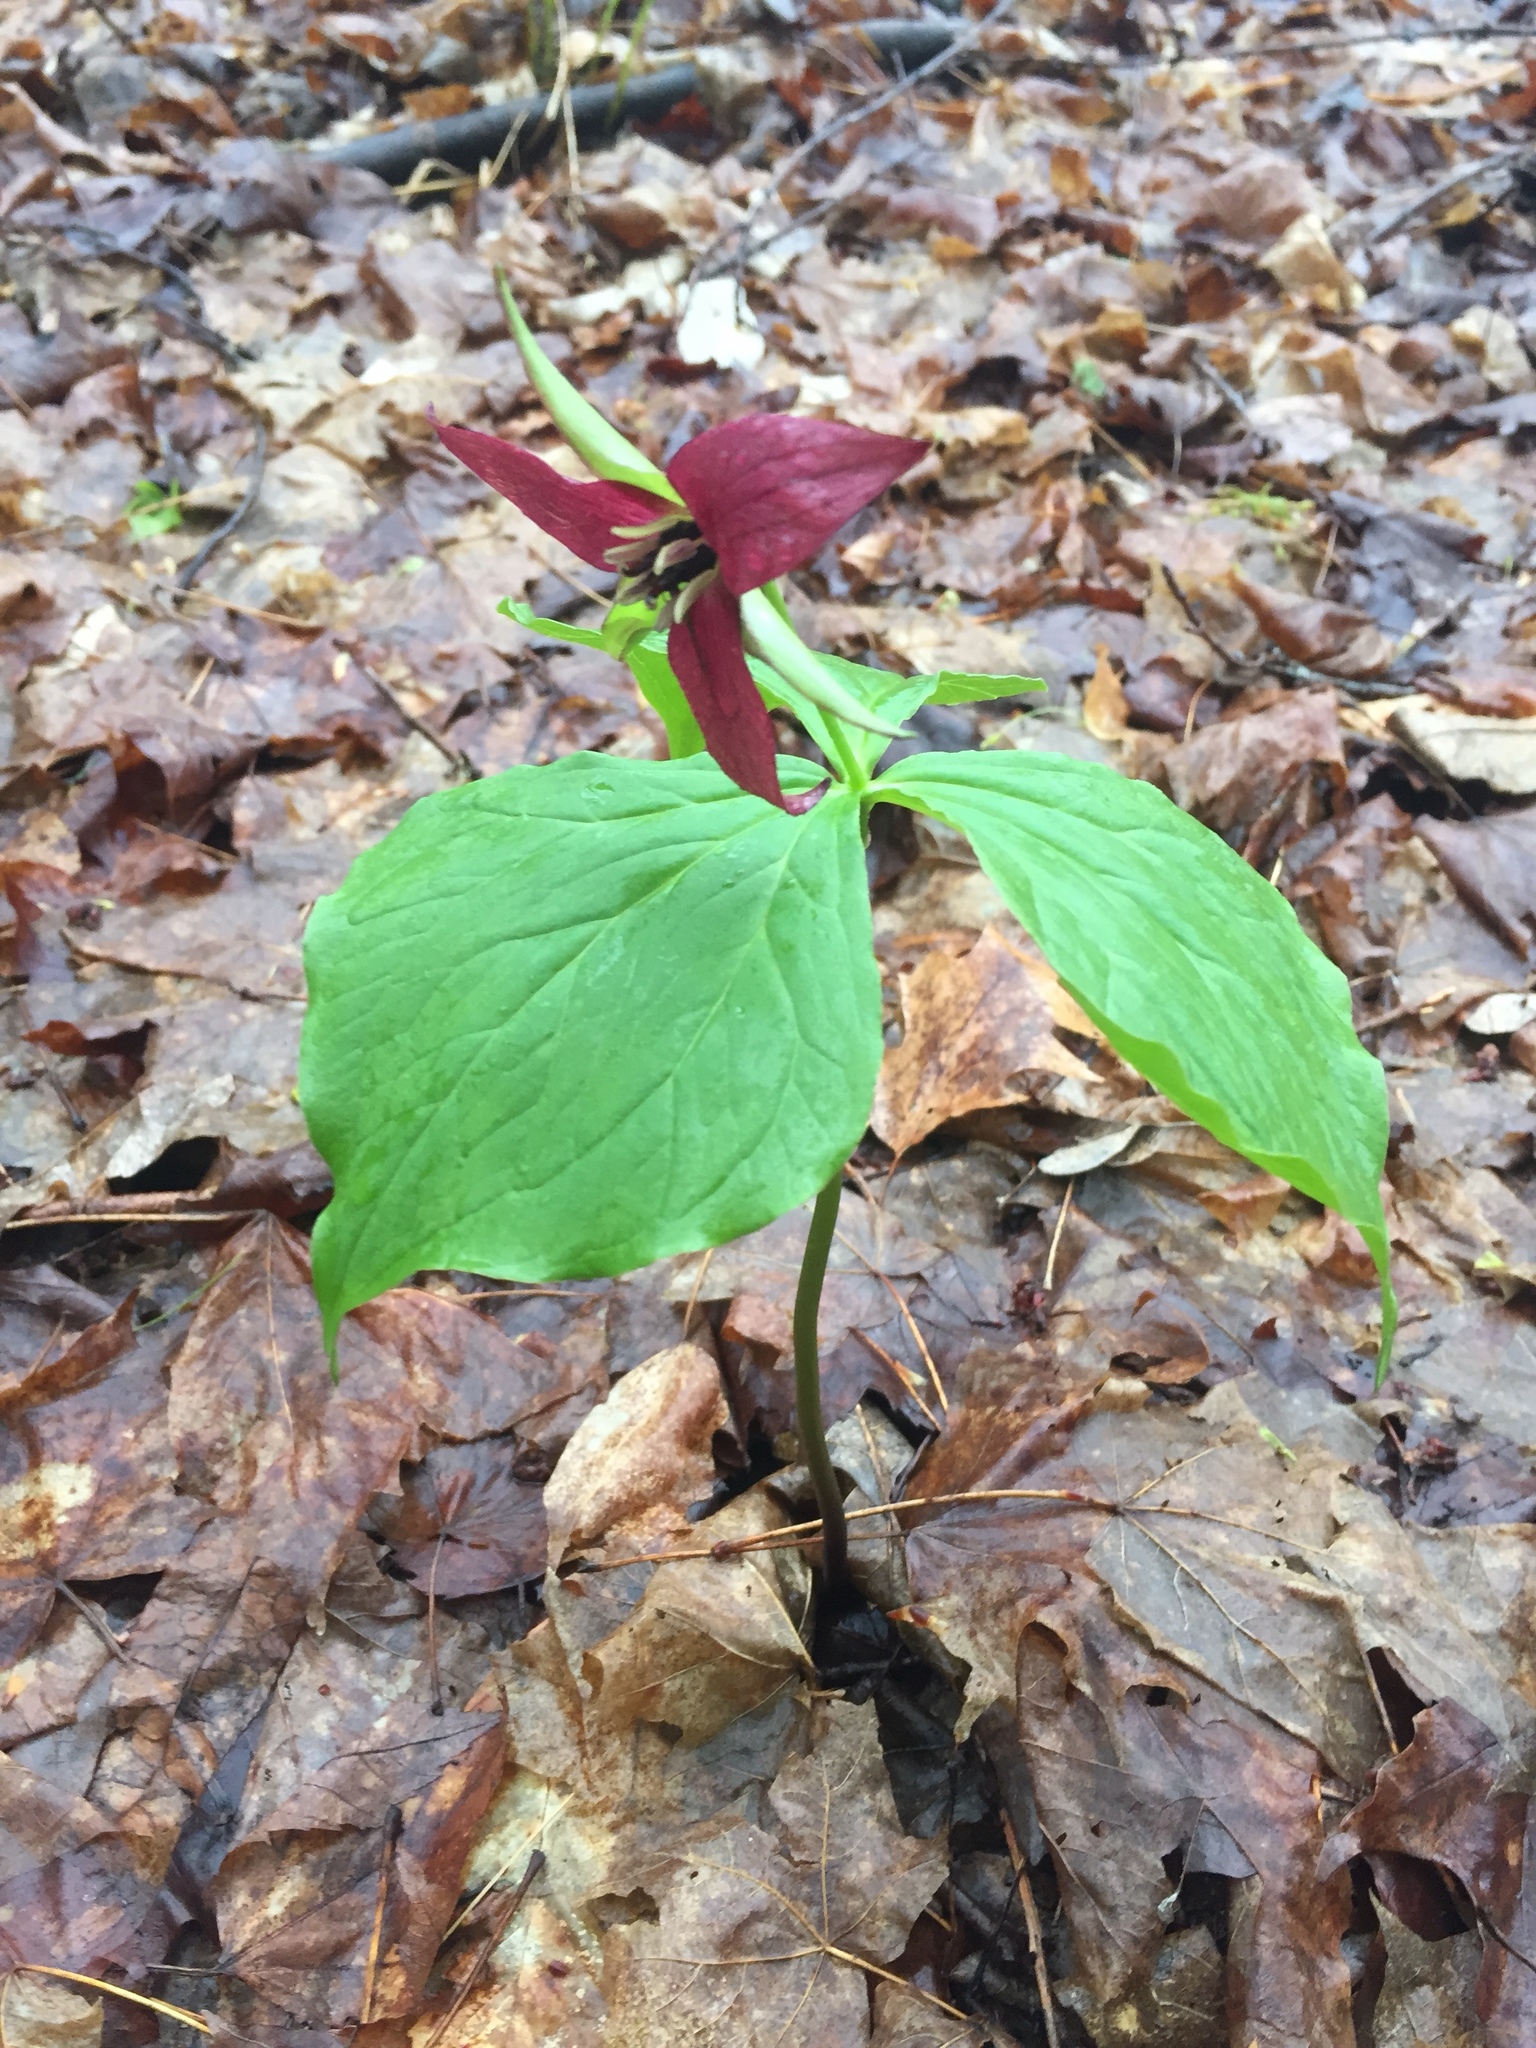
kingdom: Plantae
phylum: Tracheophyta
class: Liliopsida
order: Liliales
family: Melanthiaceae
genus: Trillium
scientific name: Trillium erectum
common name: Purple trillium
